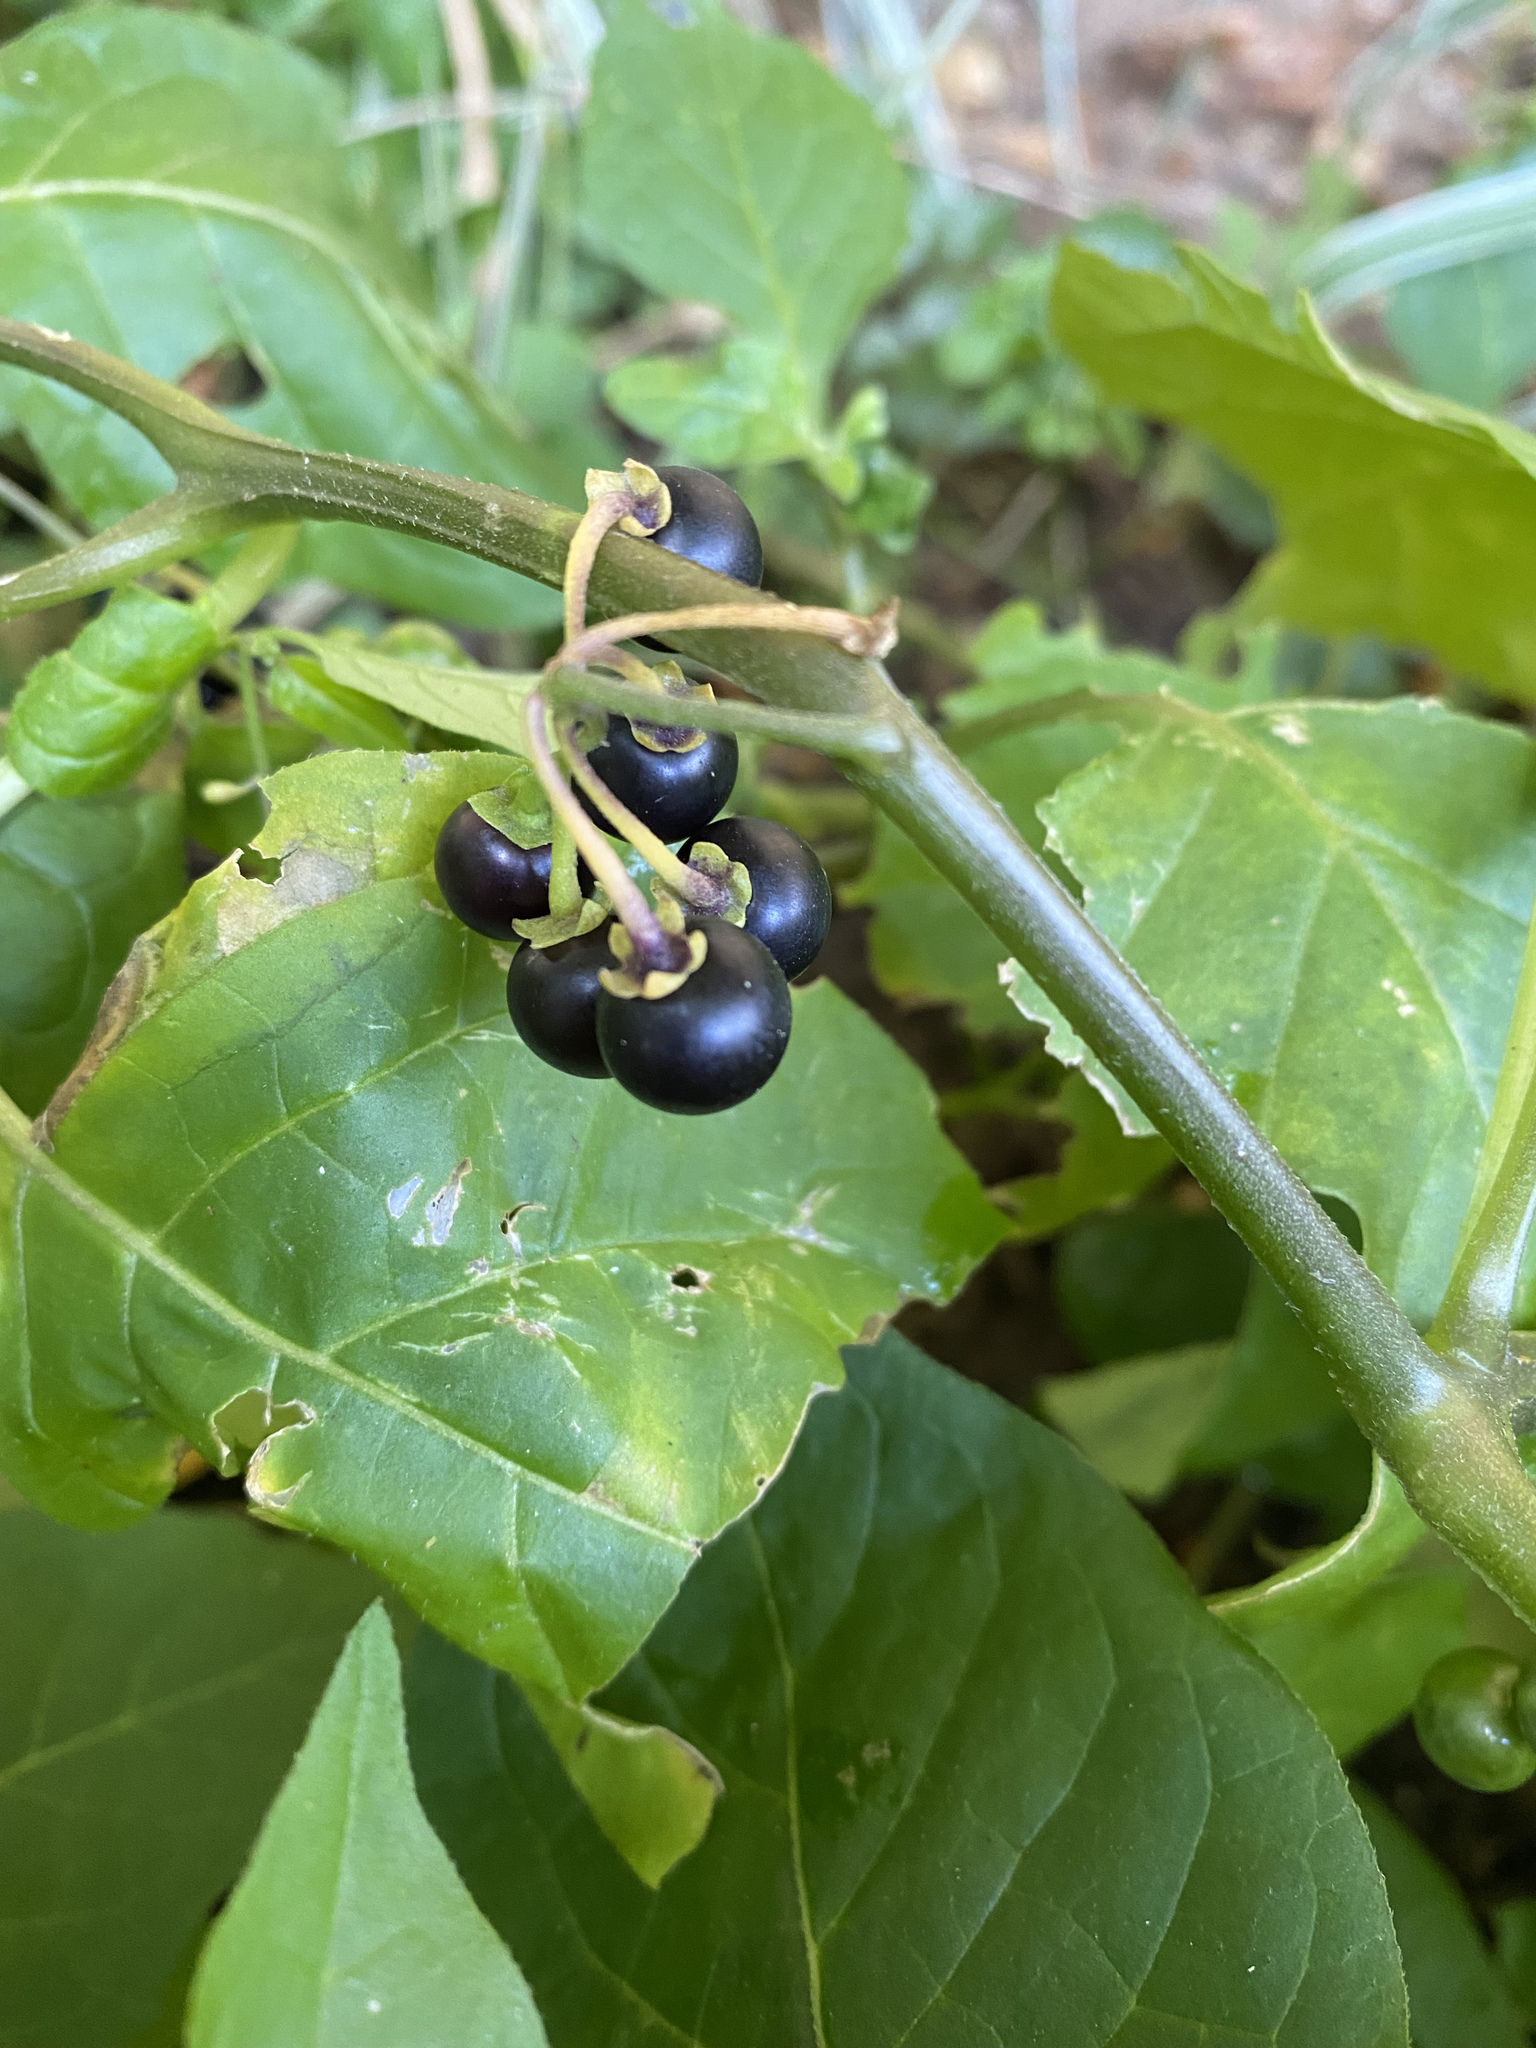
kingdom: Plantae
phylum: Tracheophyta
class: Magnoliopsida
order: Solanales
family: Solanaceae
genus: Solanum
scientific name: Solanum nigrum
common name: Black nightshade
